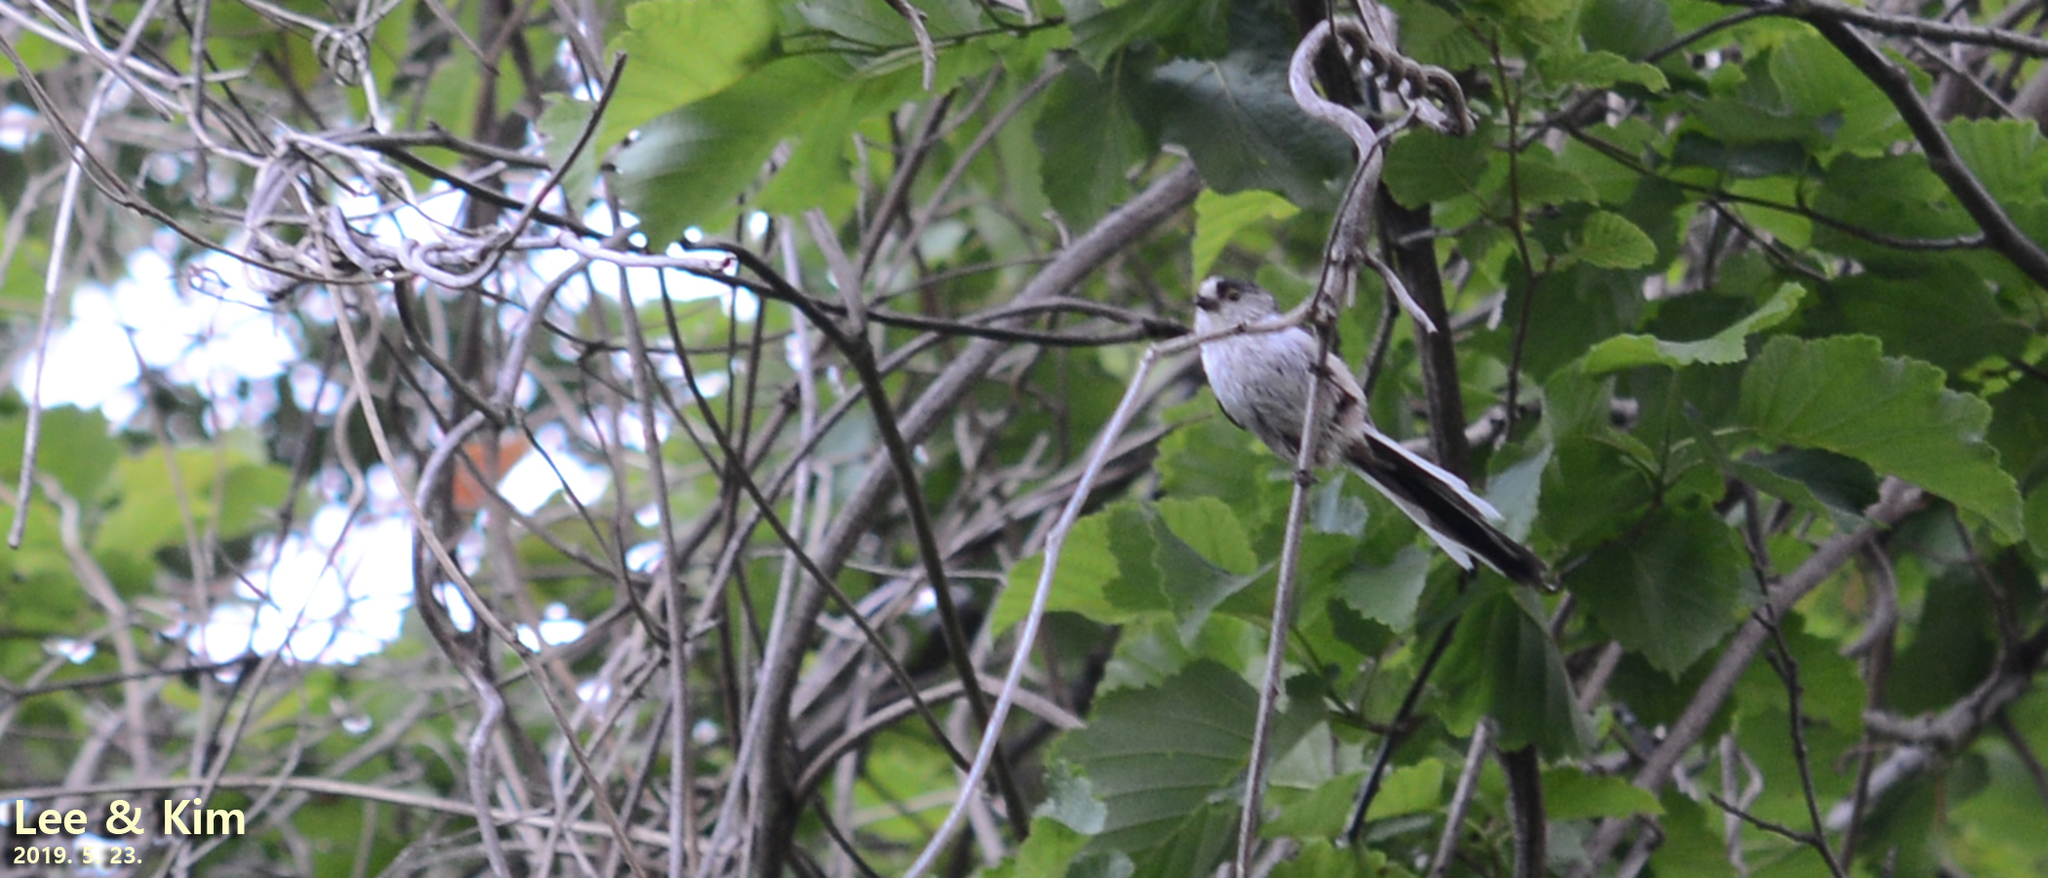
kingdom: Animalia
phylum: Chordata
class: Aves
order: Passeriformes
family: Aegithalidae
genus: Aegithalos
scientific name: Aegithalos caudatus
